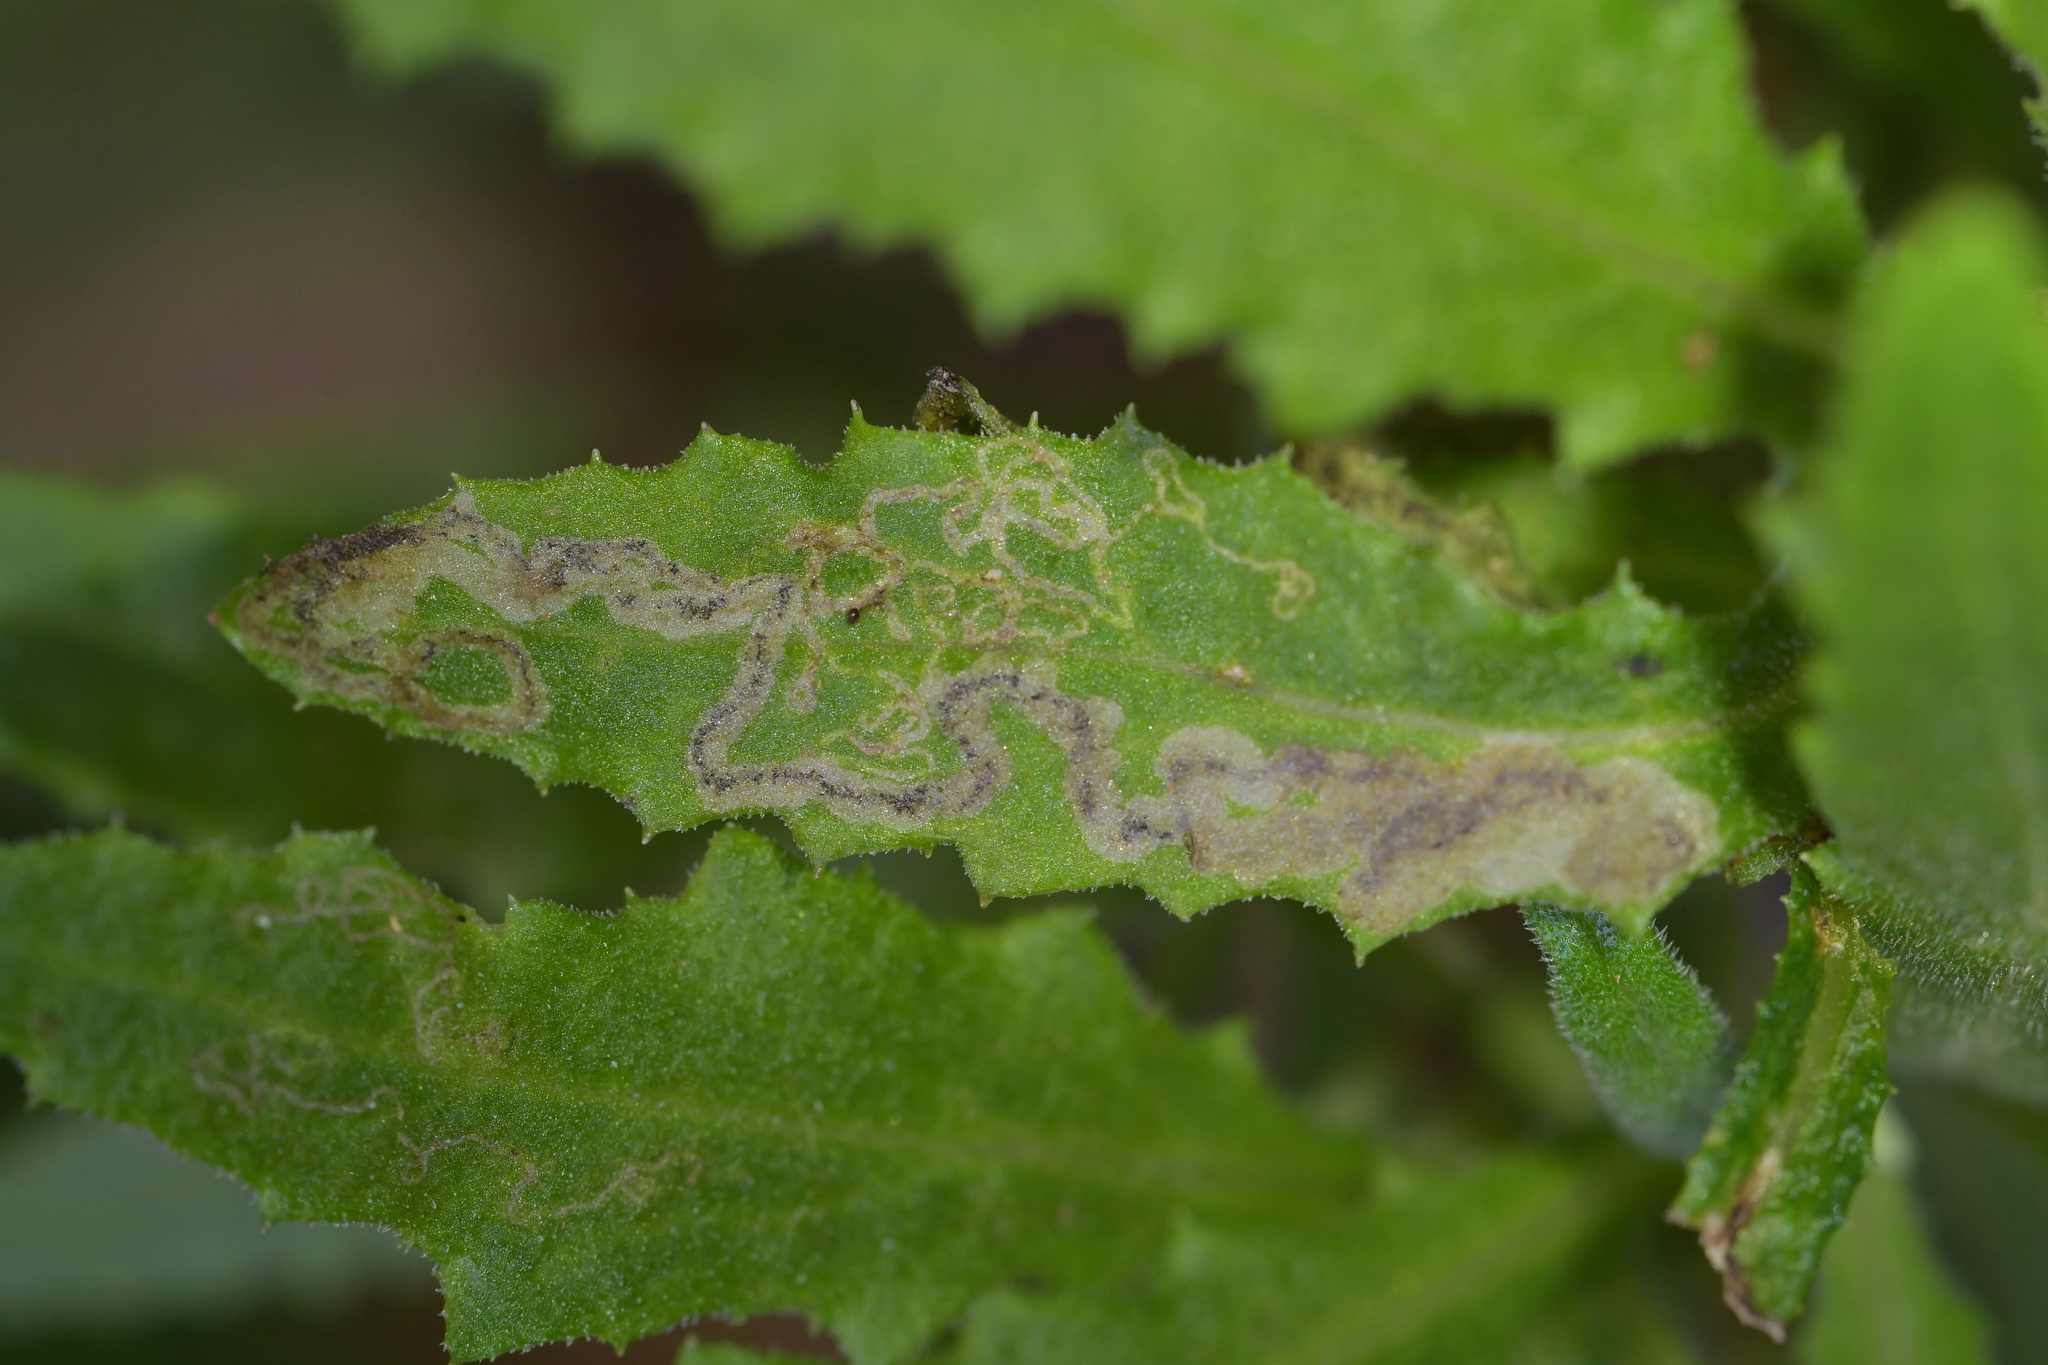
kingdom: Animalia
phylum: Arthropoda
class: Insecta
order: Lepidoptera
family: Nepticulidae
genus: Stigmella
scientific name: Stigmella ogygia
